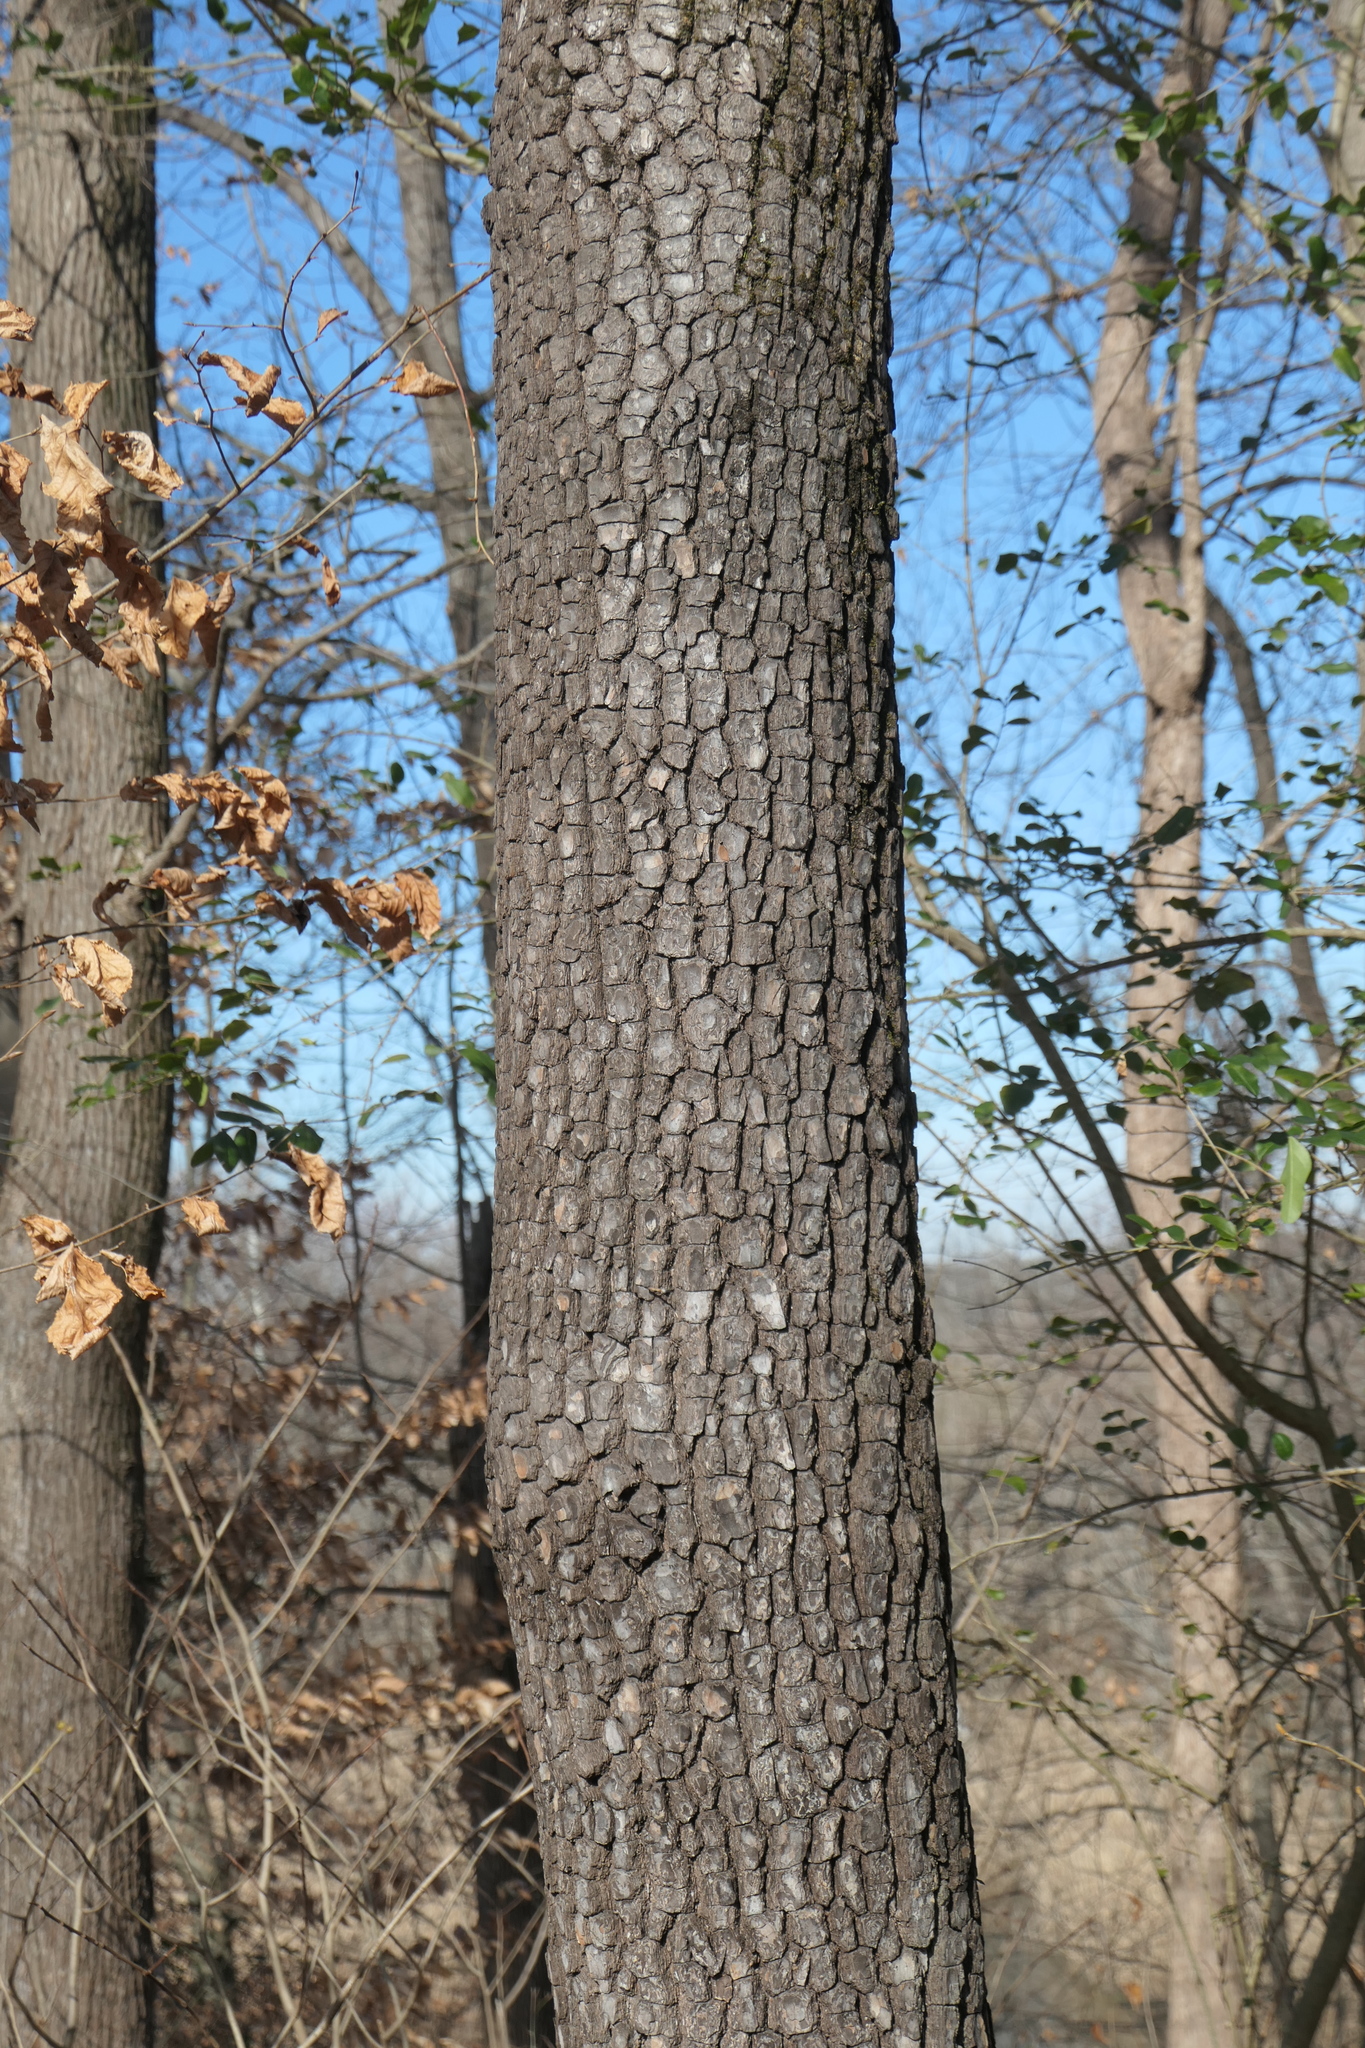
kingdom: Plantae
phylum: Tracheophyta
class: Magnoliopsida
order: Ericales
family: Ebenaceae
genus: Diospyros
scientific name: Diospyros virginiana
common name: Persimmon
